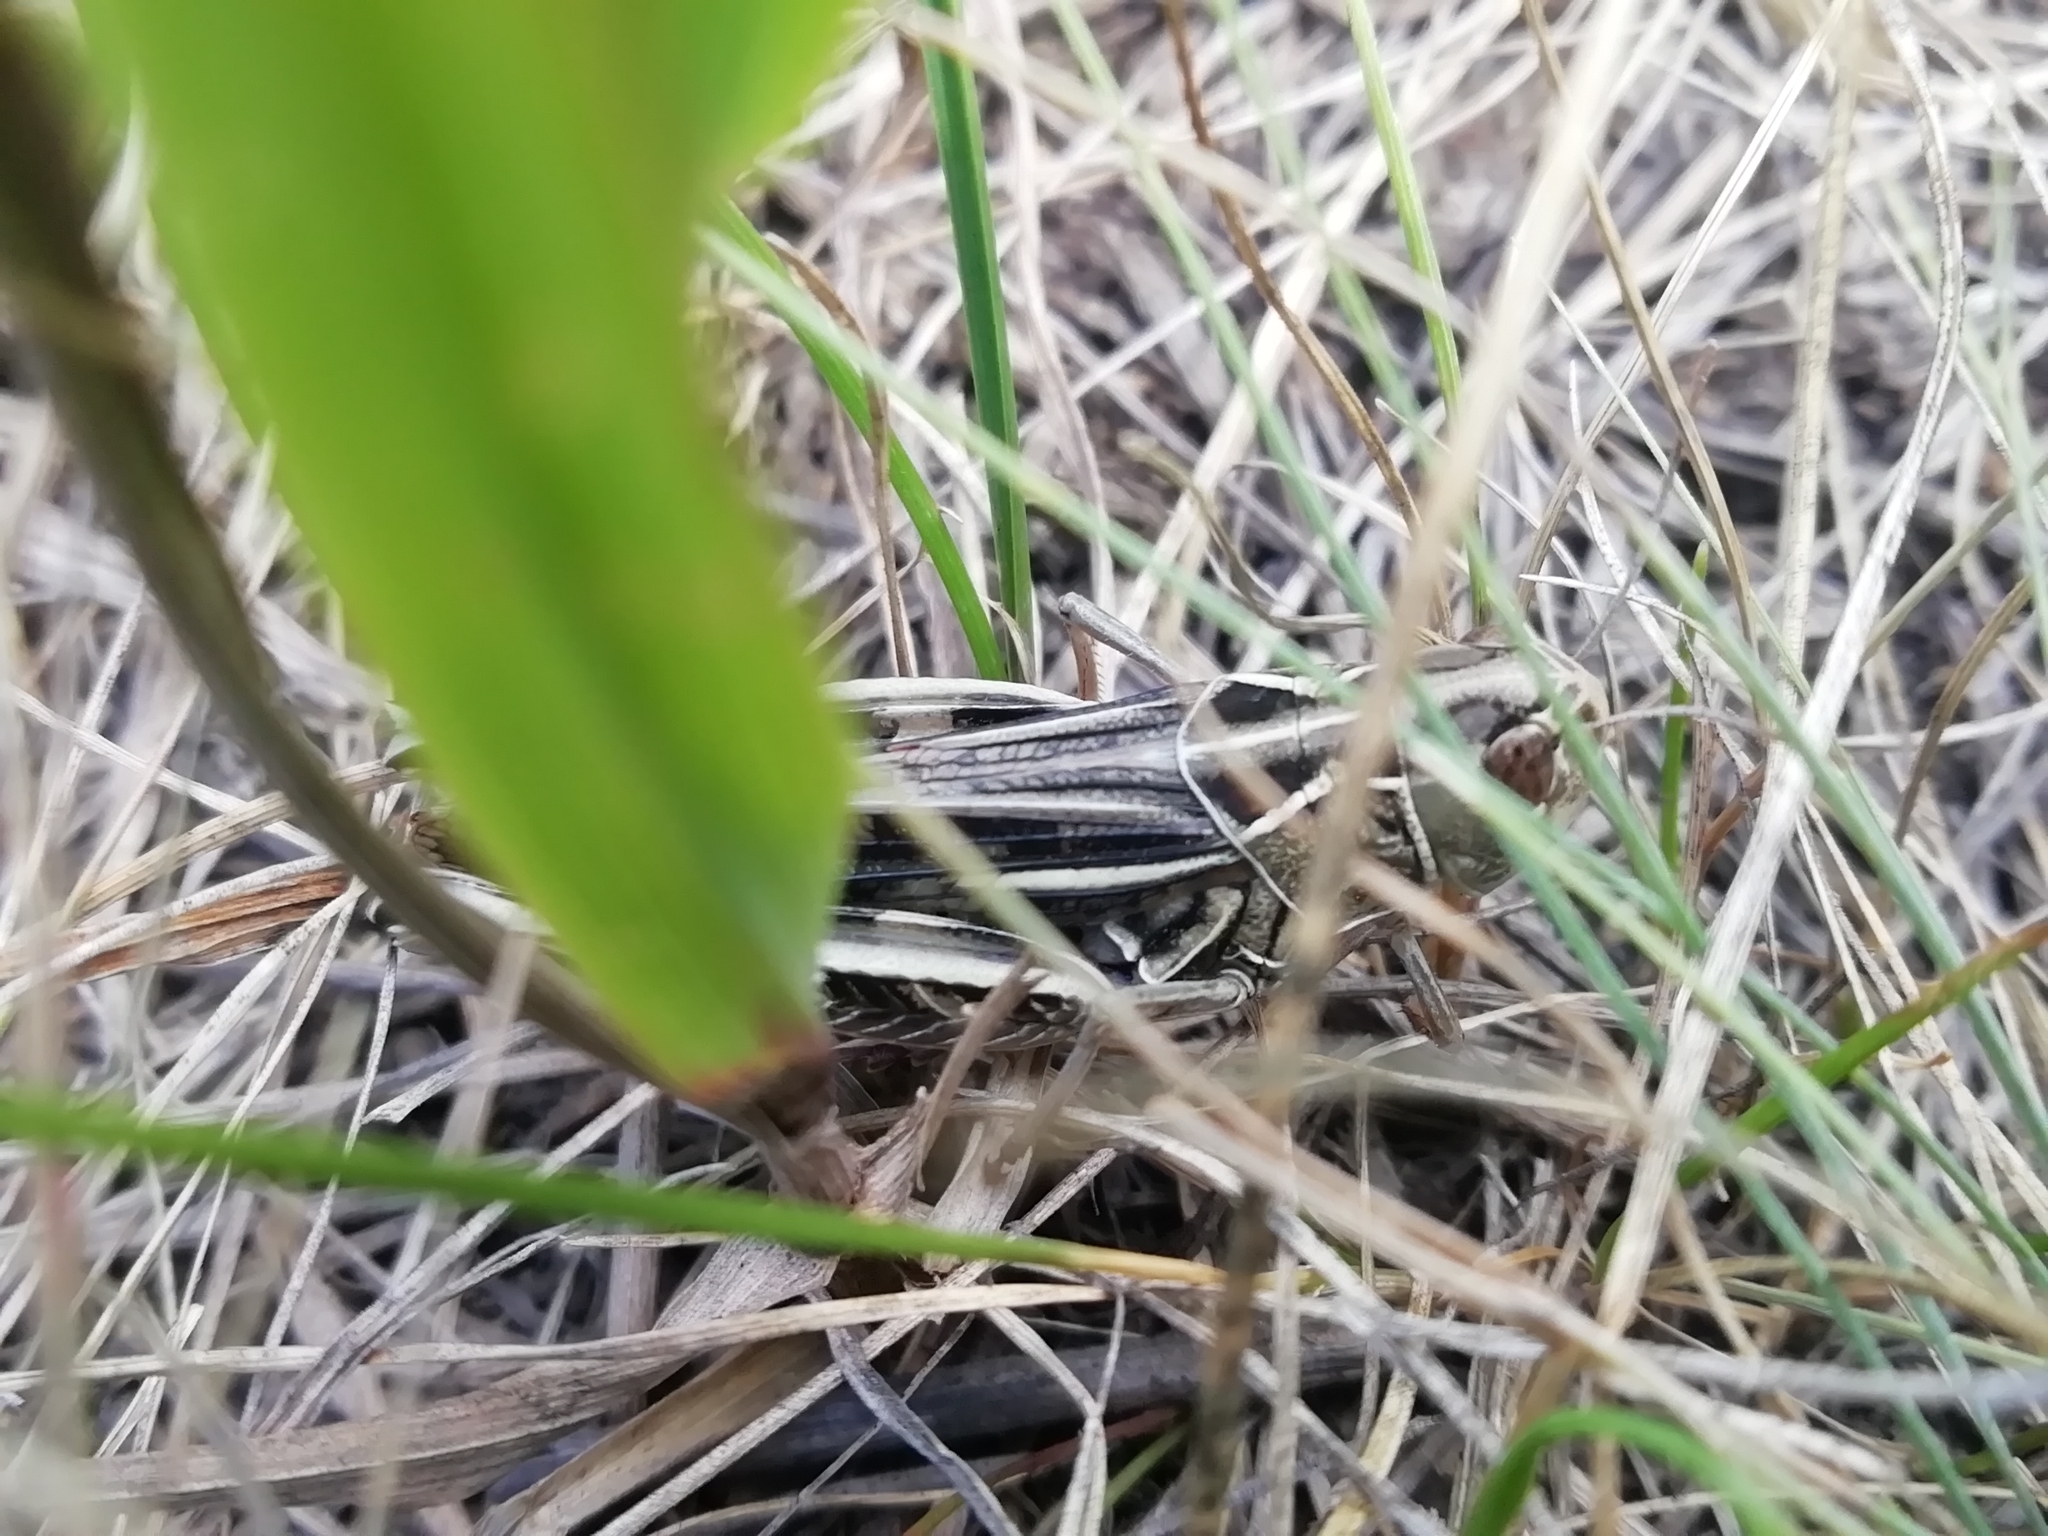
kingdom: Animalia
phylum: Arthropoda
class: Insecta
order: Orthoptera
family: Acrididae
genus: Arcyptera
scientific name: Arcyptera microptera
